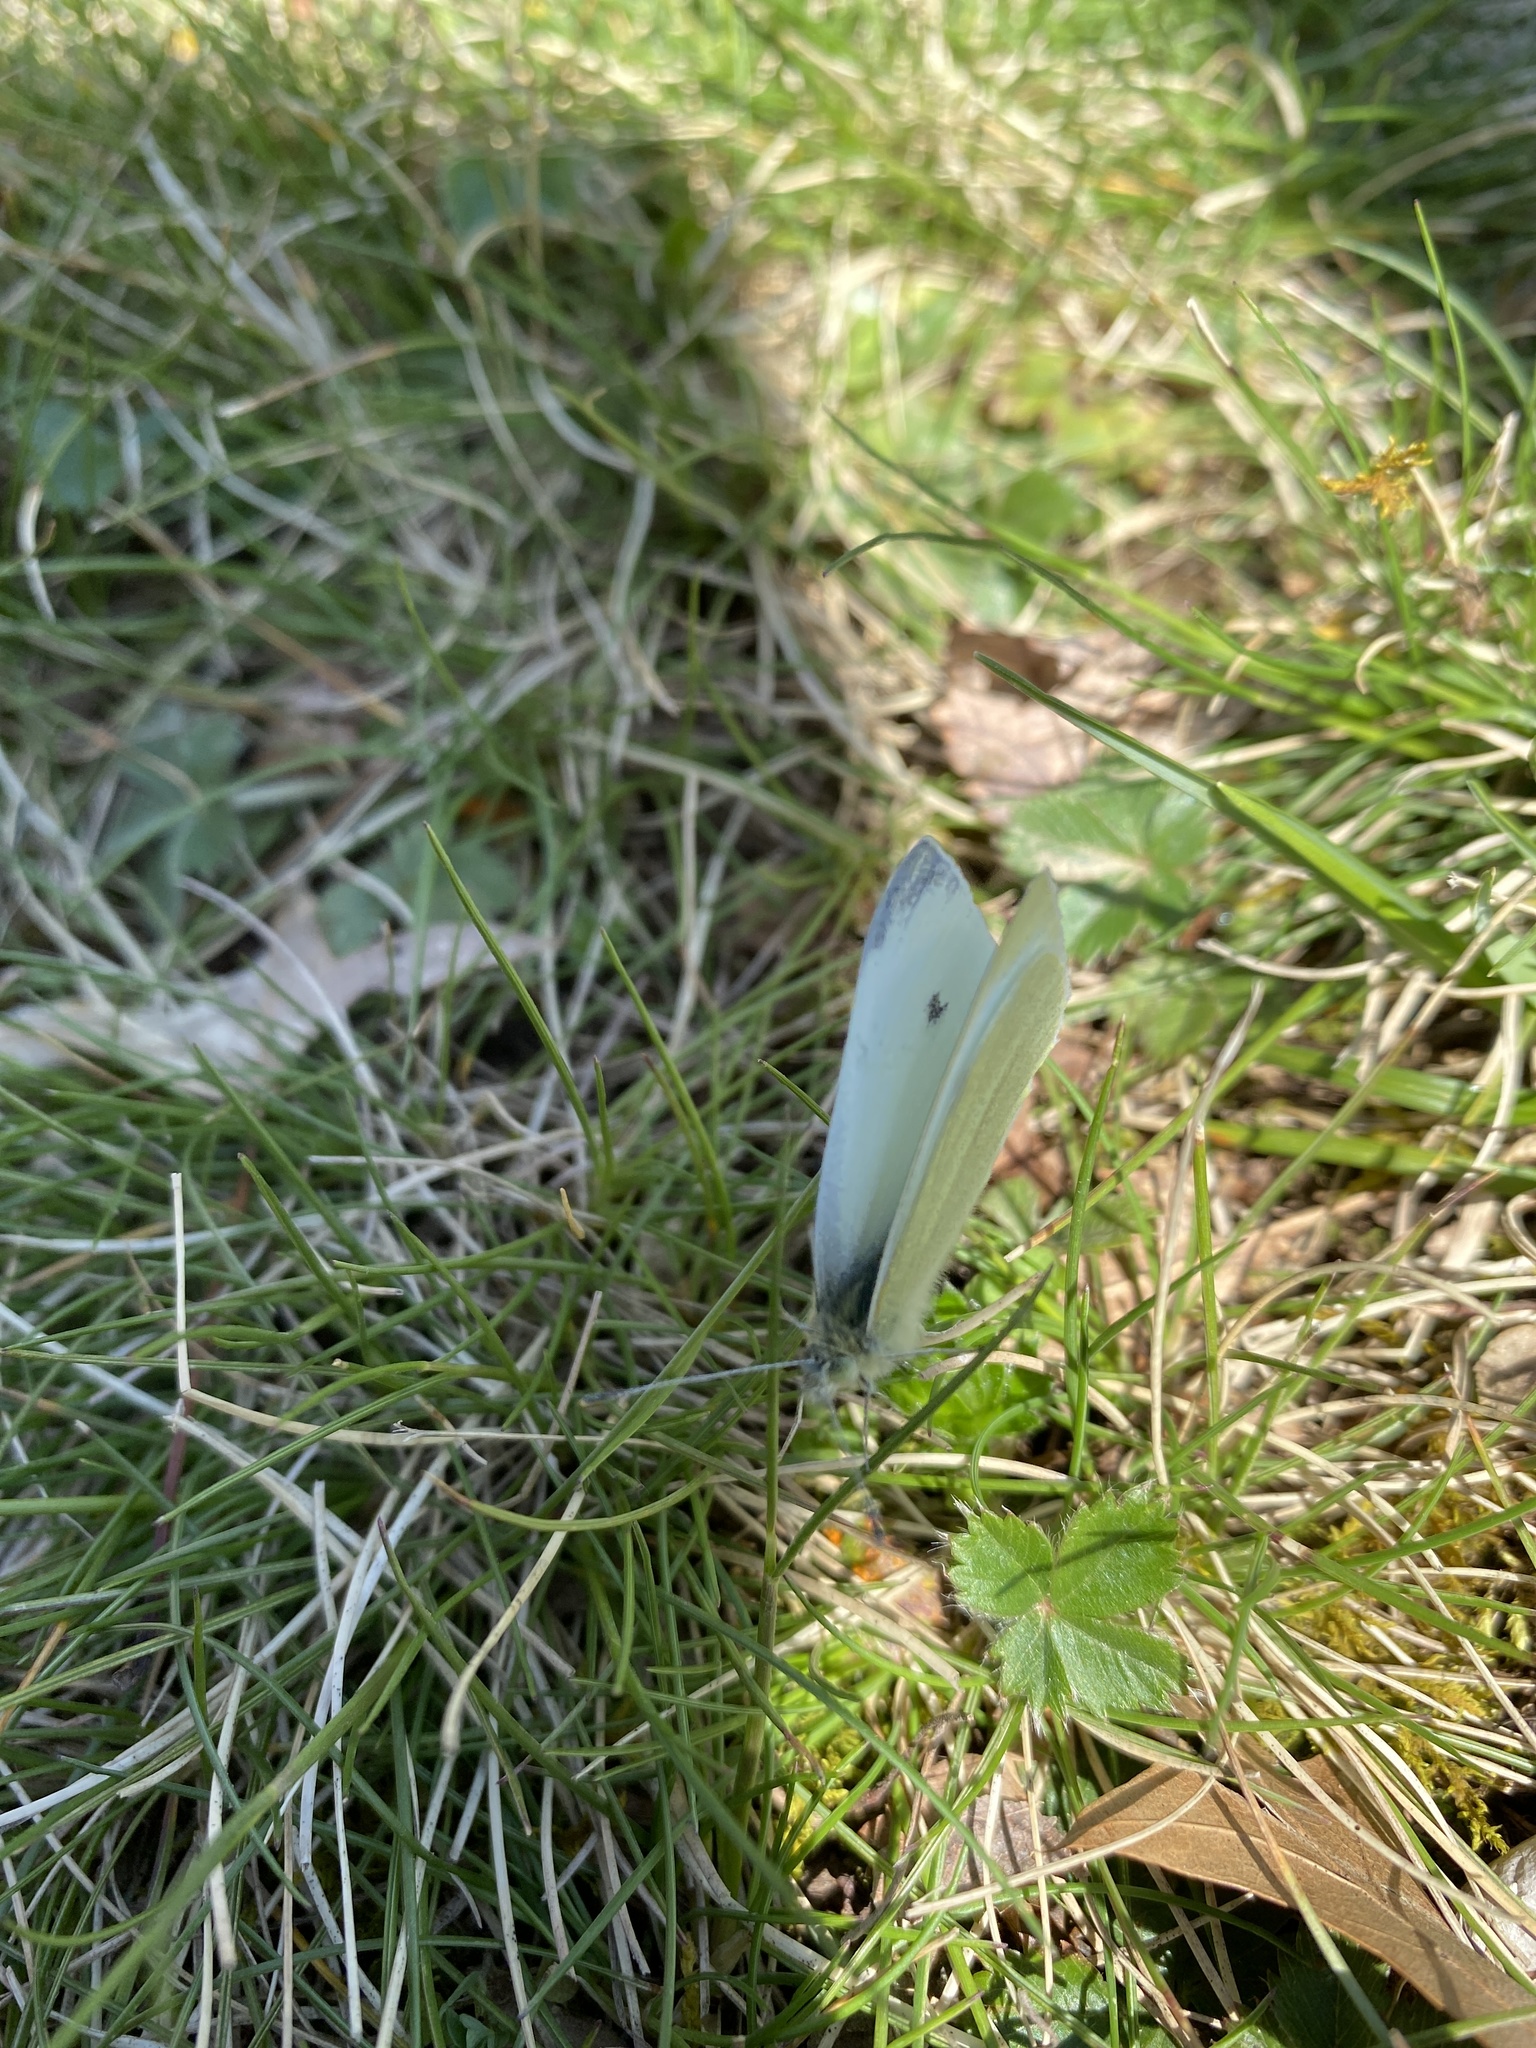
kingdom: Animalia
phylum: Arthropoda
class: Insecta
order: Lepidoptera
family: Pieridae
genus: Pieris
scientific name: Pieris rapae
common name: Small white
